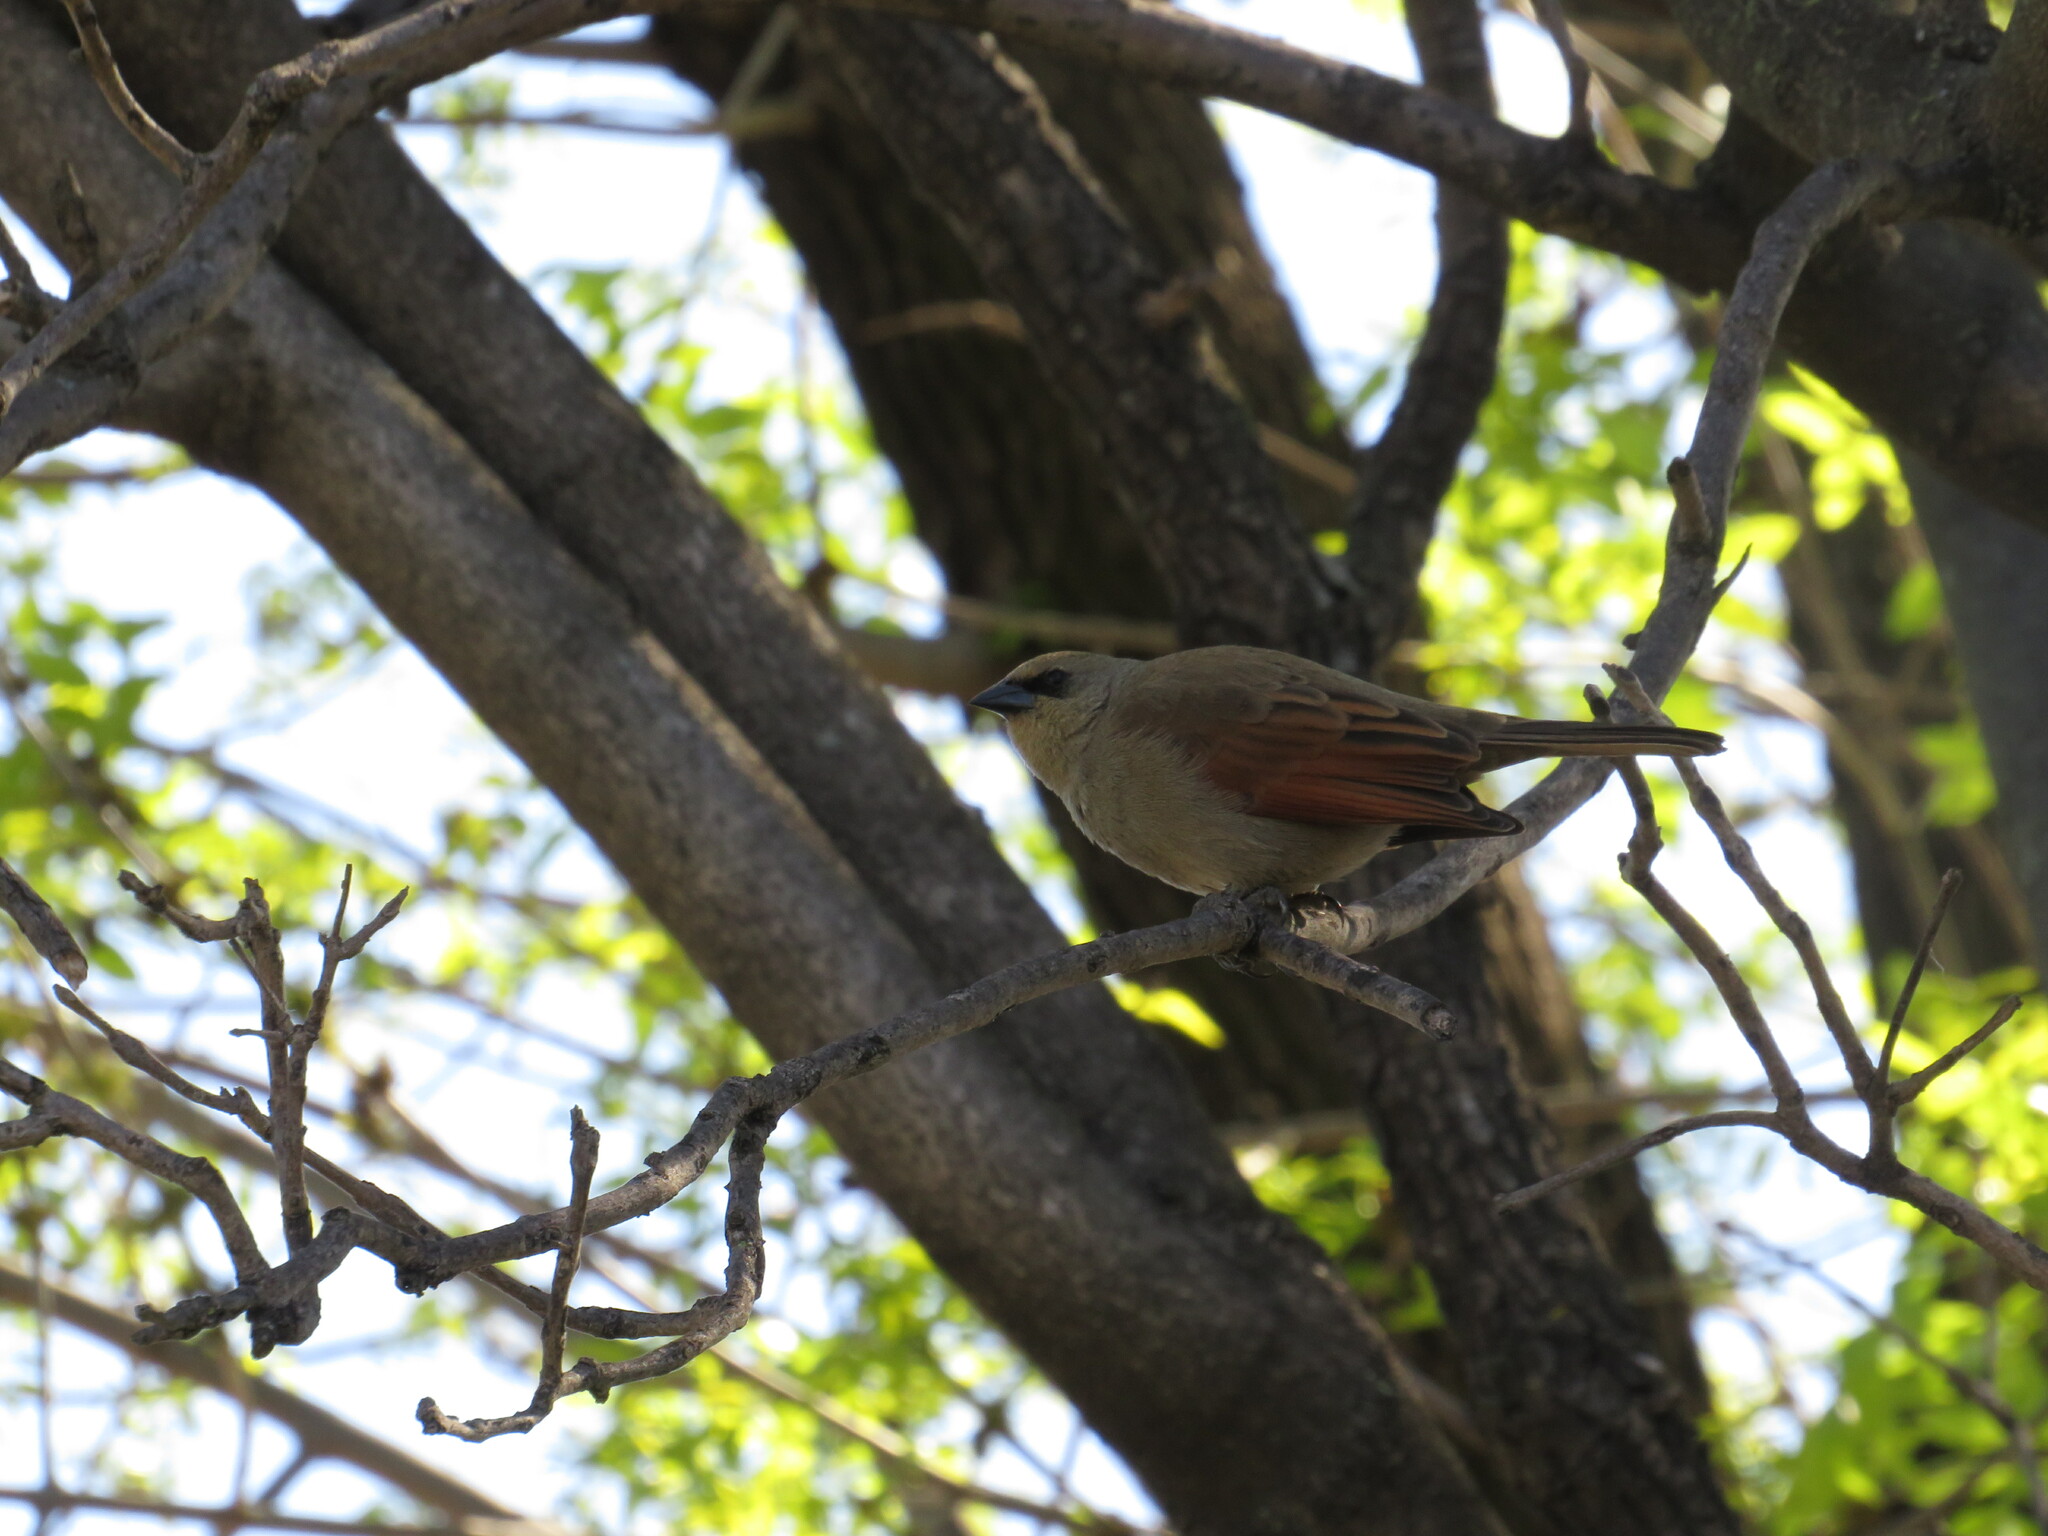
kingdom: Animalia
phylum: Chordata
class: Aves
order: Passeriformes
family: Icteridae
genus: Agelaioides
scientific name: Agelaioides badius
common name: Baywing
